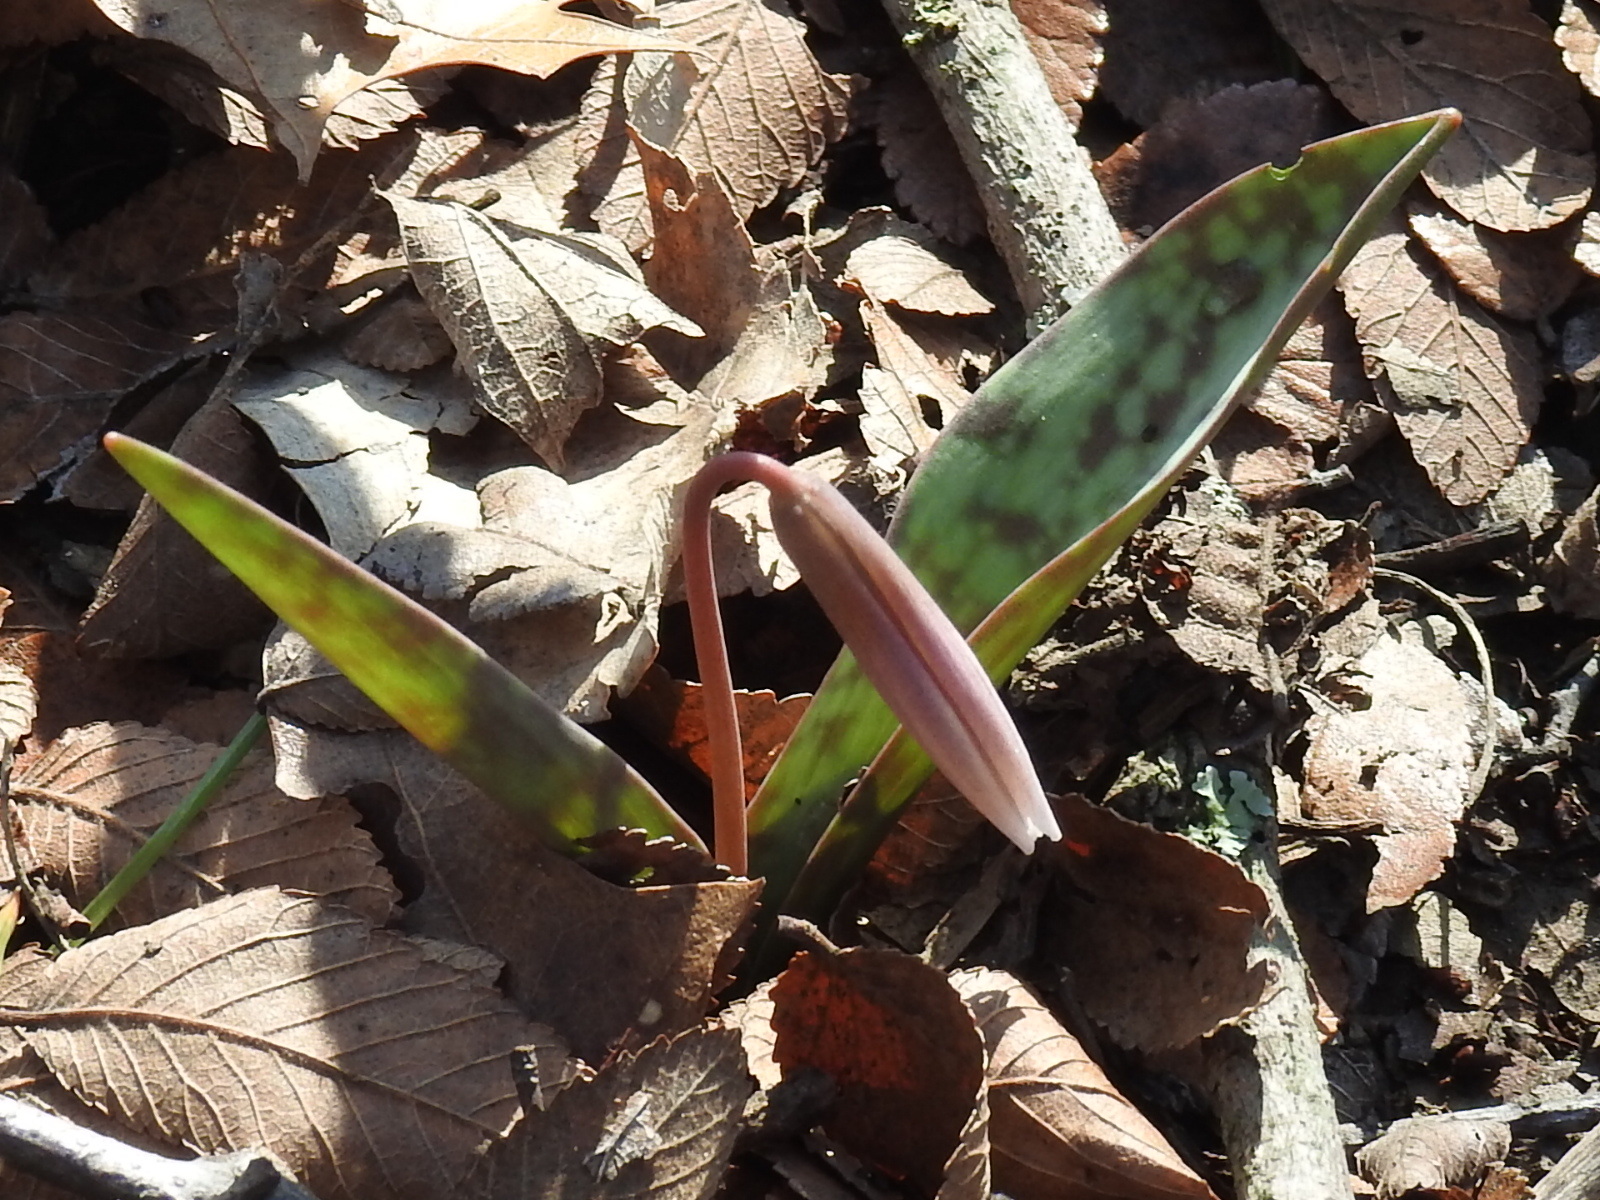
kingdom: Plantae
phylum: Tracheophyta
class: Liliopsida
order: Liliales
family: Liliaceae
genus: Erythronium
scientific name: Erythronium albidum
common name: White trout-lily
